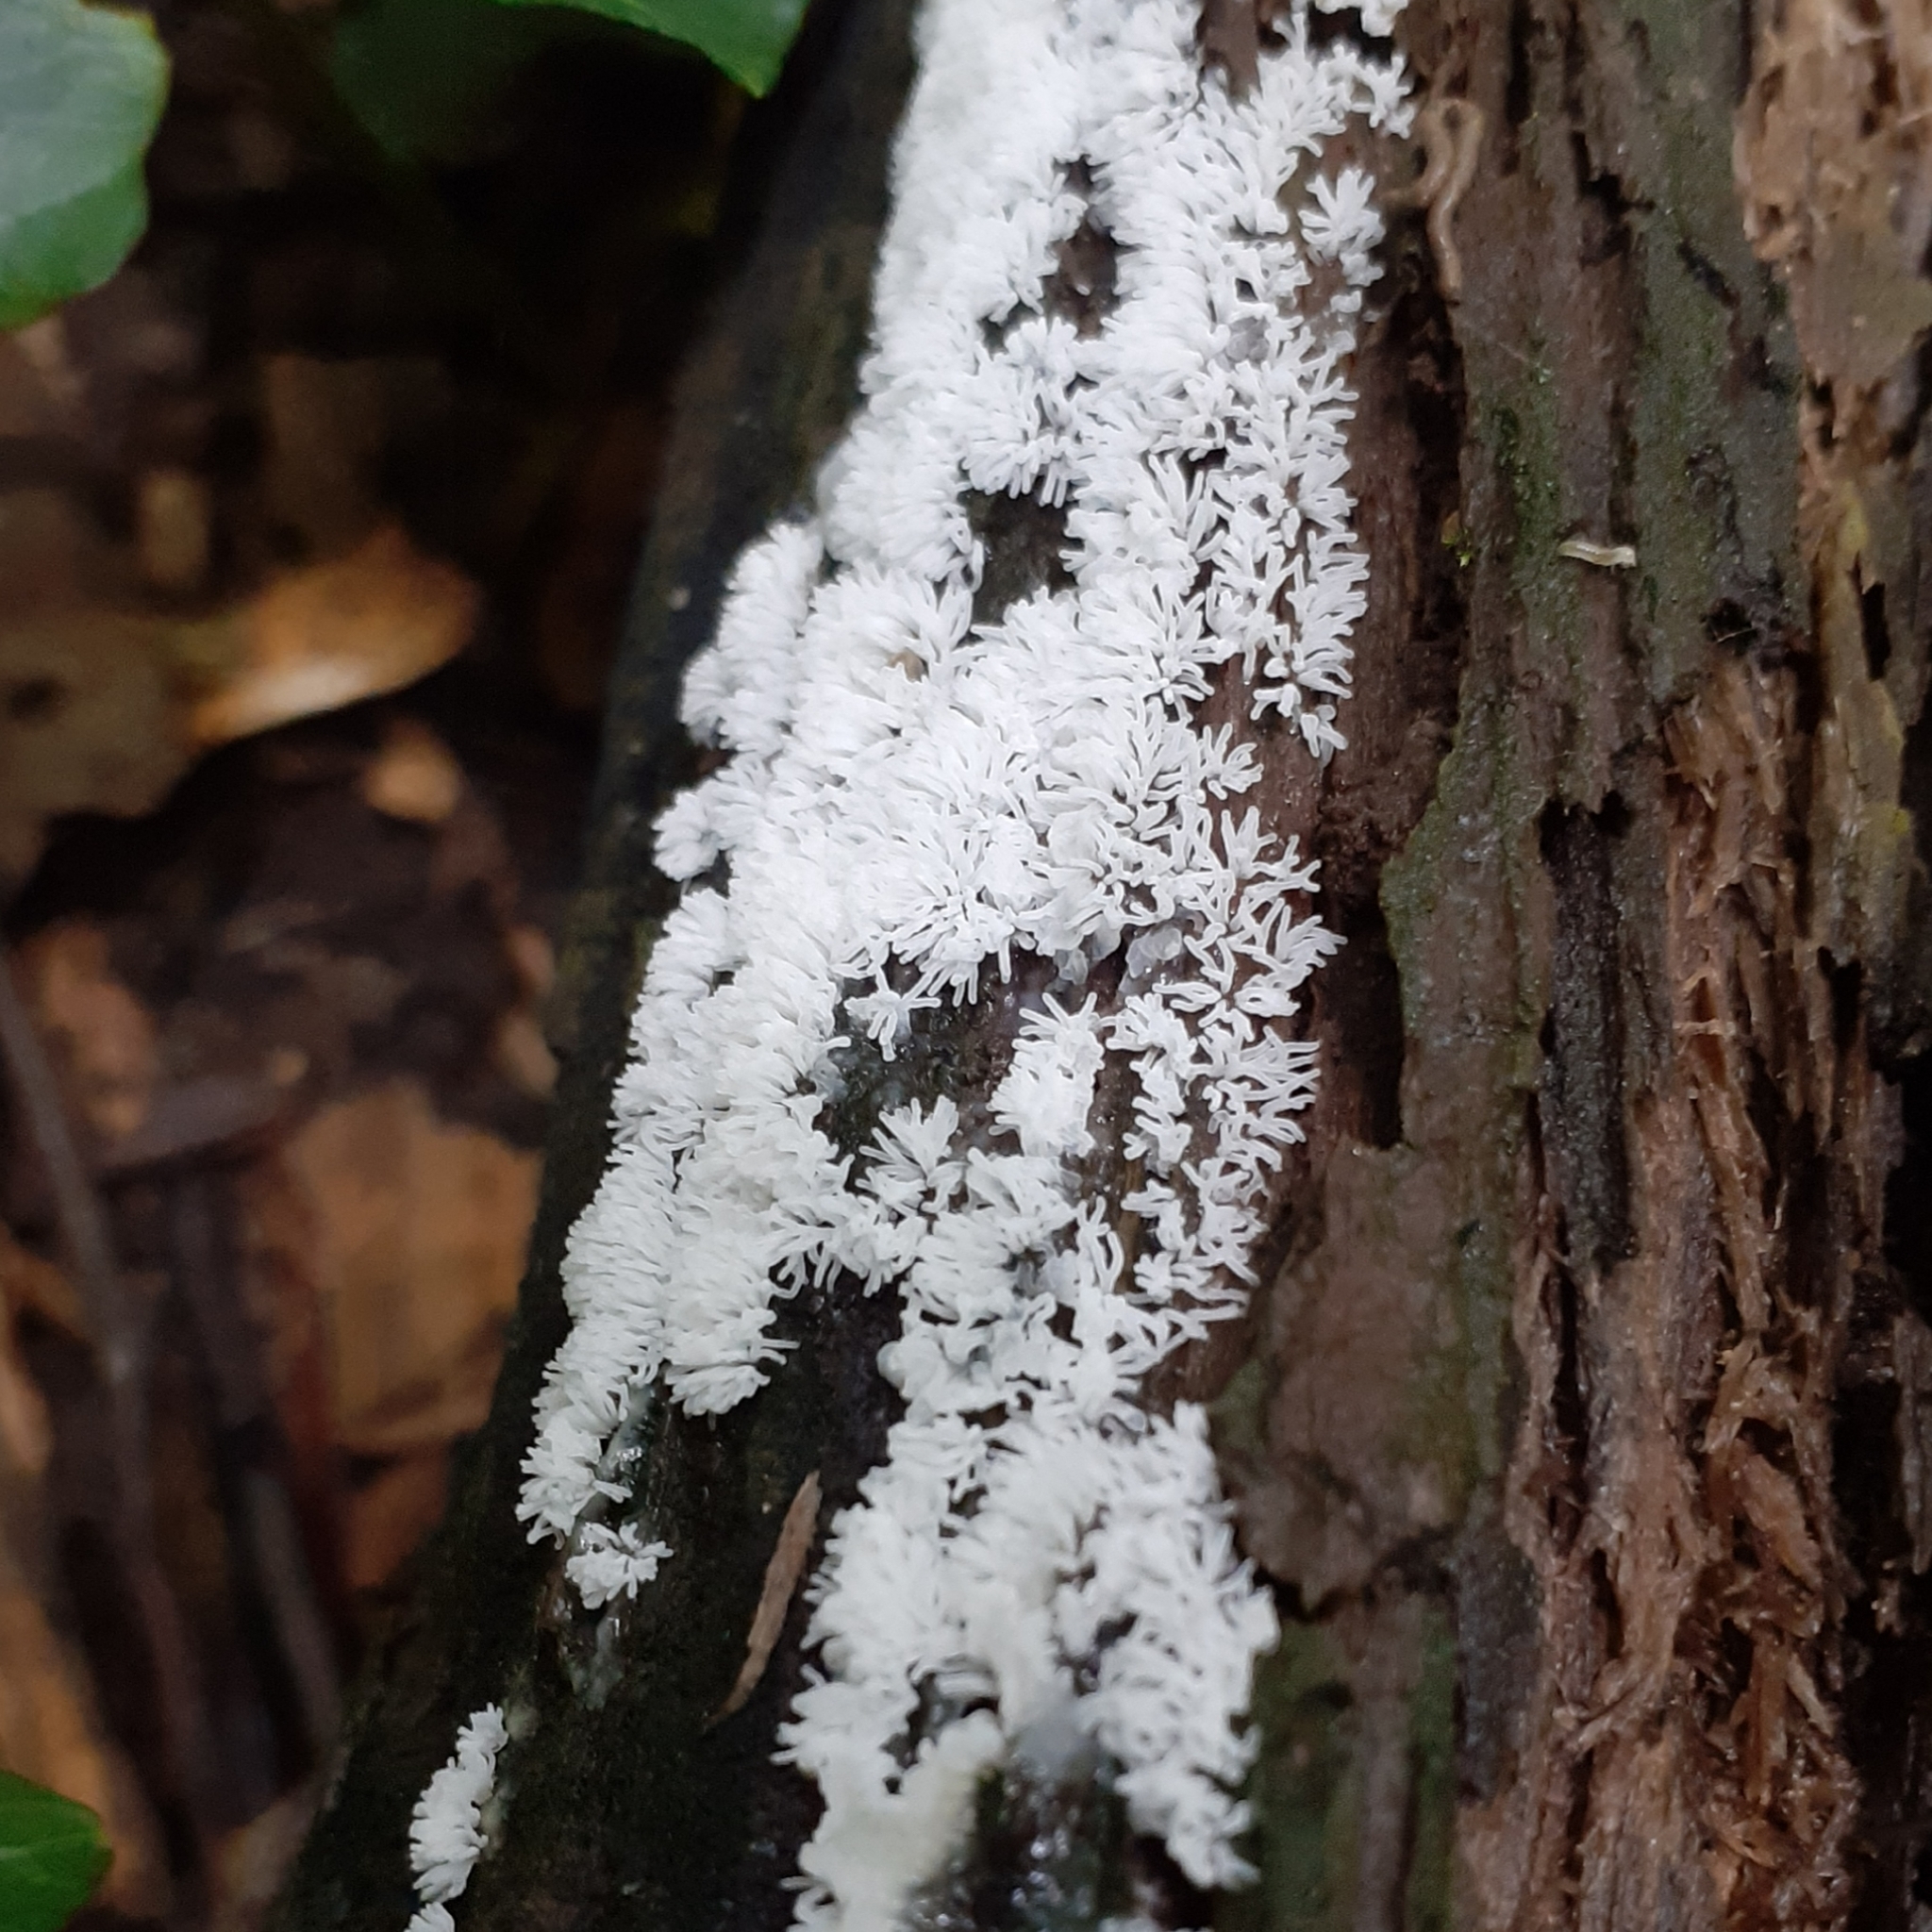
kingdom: Protozoa
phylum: Mycetozoa
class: Protosteliomycetes
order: Ceratiomyxales
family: Ceratiomyxaceae
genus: Ceratiomyxa
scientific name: Ceratiomyxa fruticulosa
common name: Honeycomb coral slime mold
